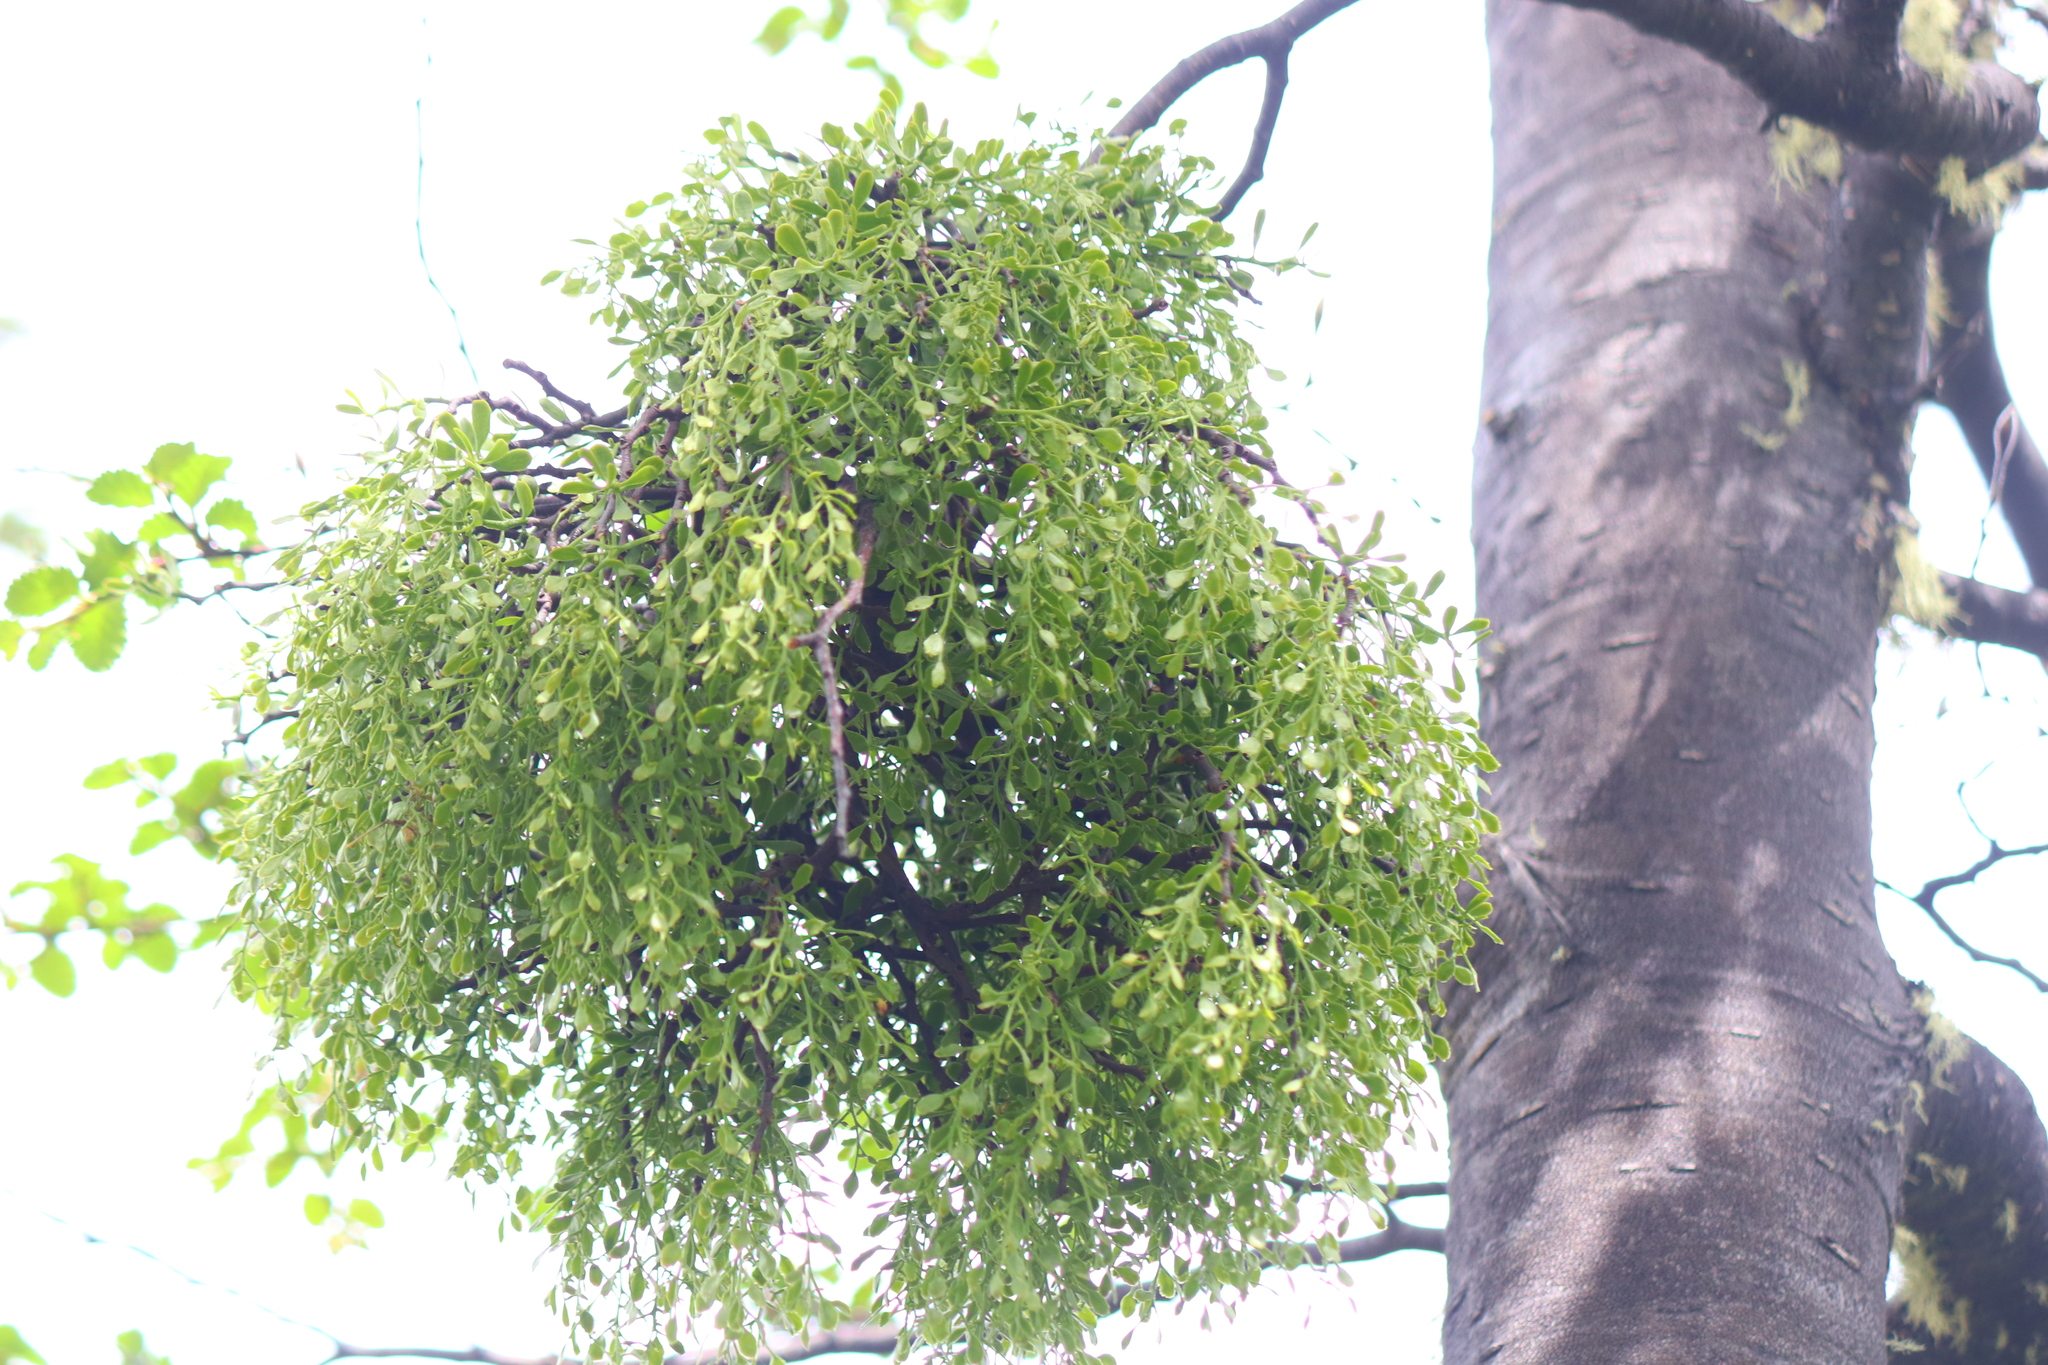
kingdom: Plantae
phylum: Tracheophyta
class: Magnoliopsida
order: Santalales
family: Misodendraceae
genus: Misodendrum
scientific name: Misodendrum quadriflorum
